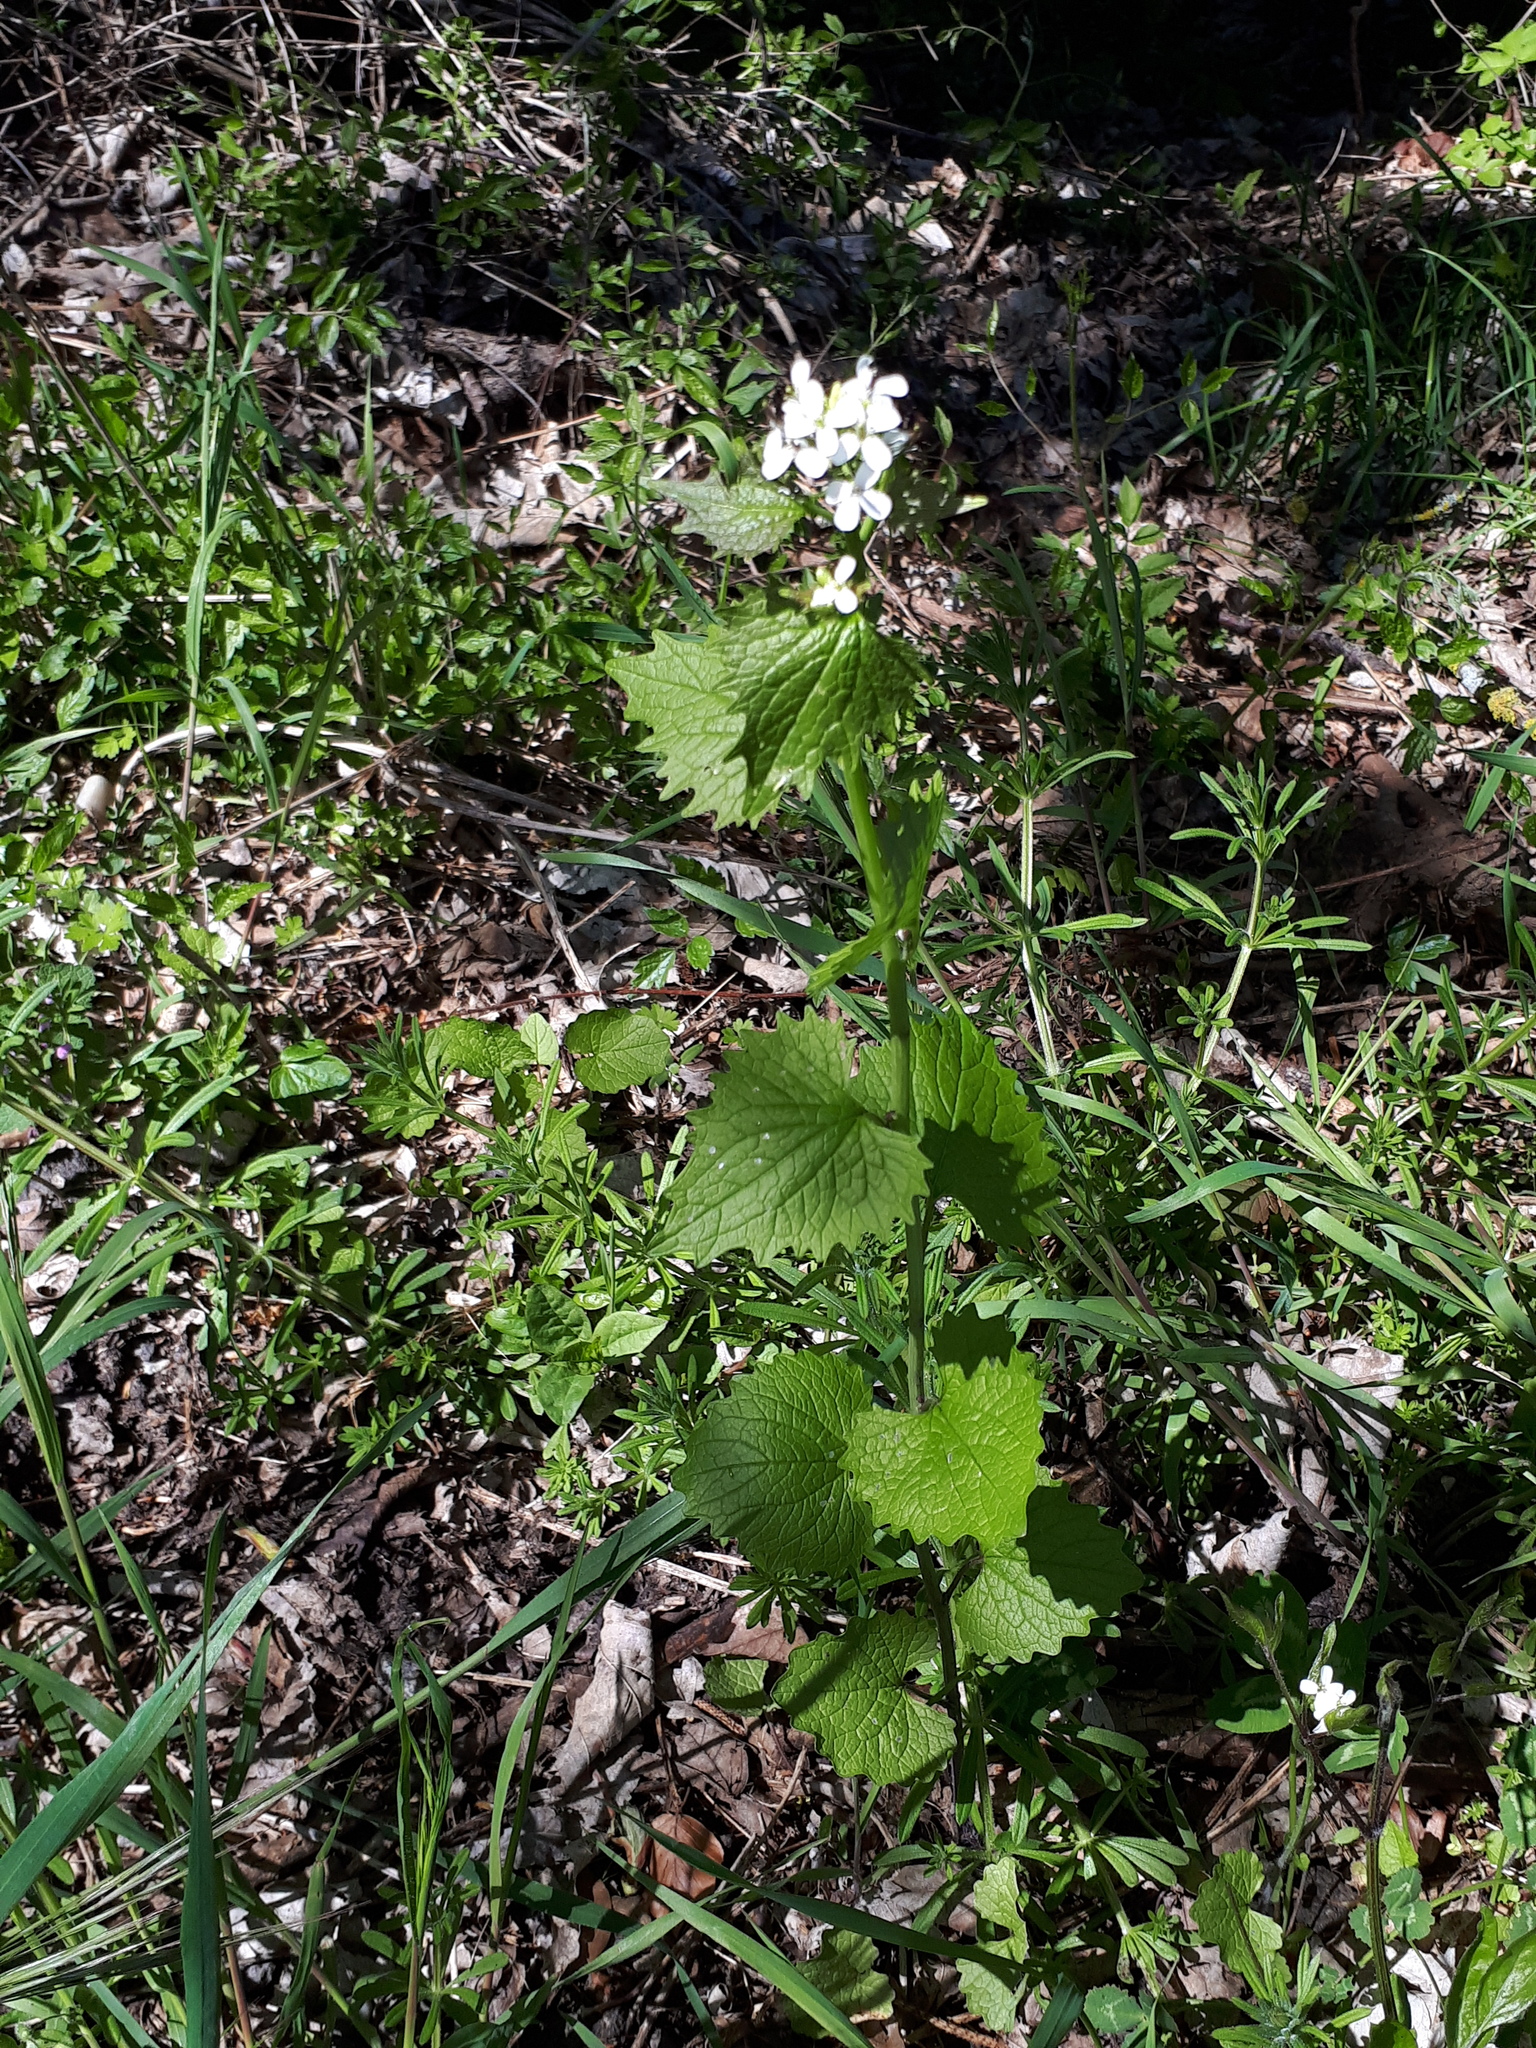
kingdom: Plantae
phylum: Tracheophyta
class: Magnoliopsida
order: Brassicales
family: Brassicaceae
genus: Alliaria
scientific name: Alliaria petiolata
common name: Garlic mustard
